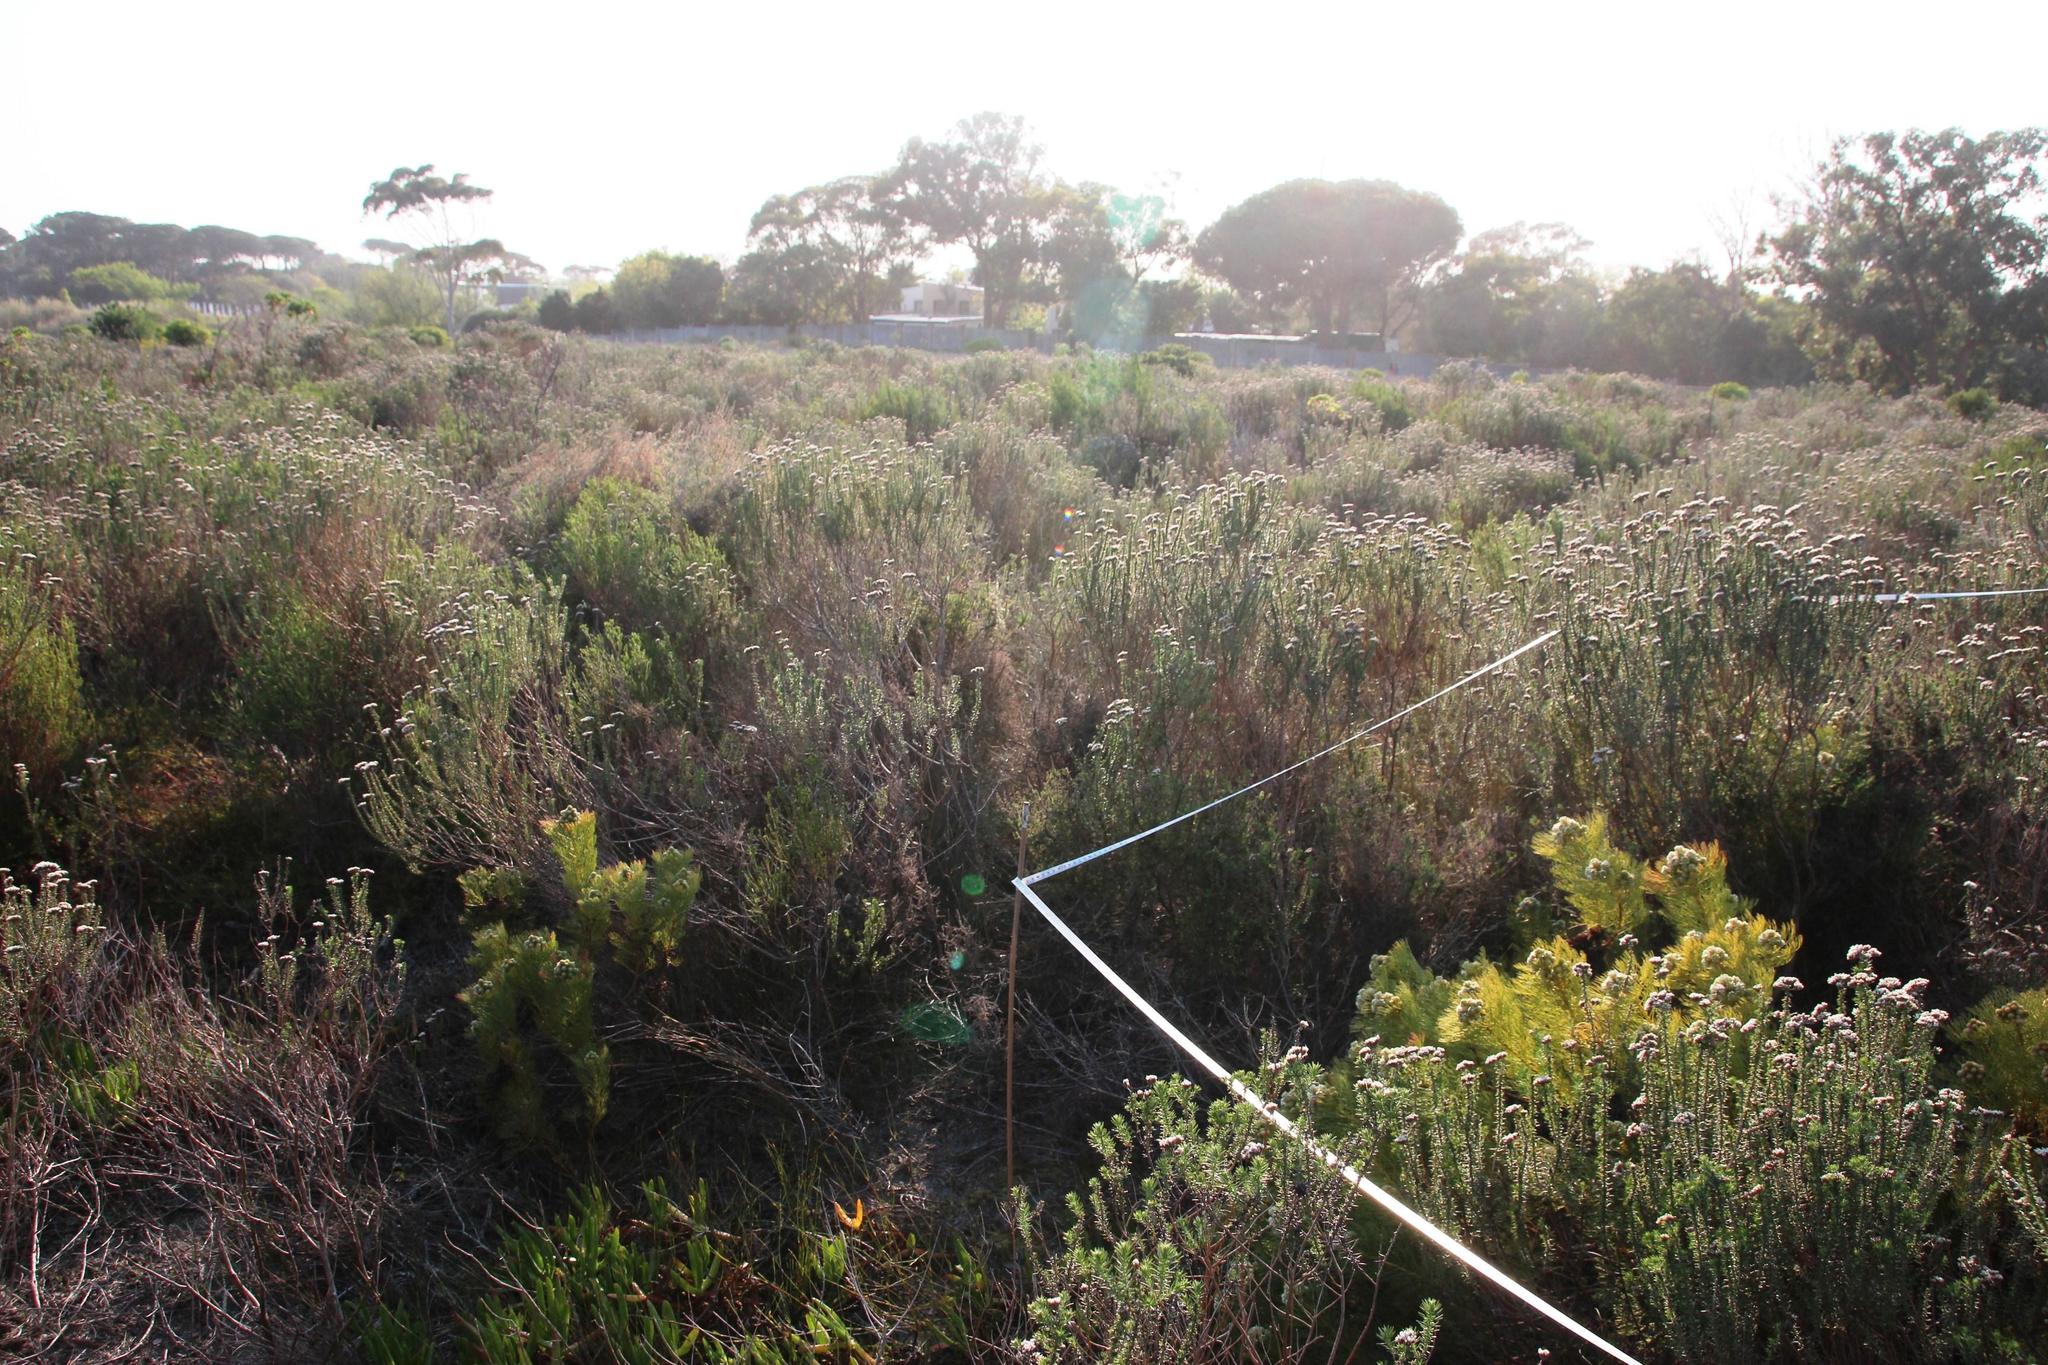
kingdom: Plantae
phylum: Tracheophyta
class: Magnoliopsida
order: Asterales
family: Asteraceae
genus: Metalasia
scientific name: Metalasia densa
